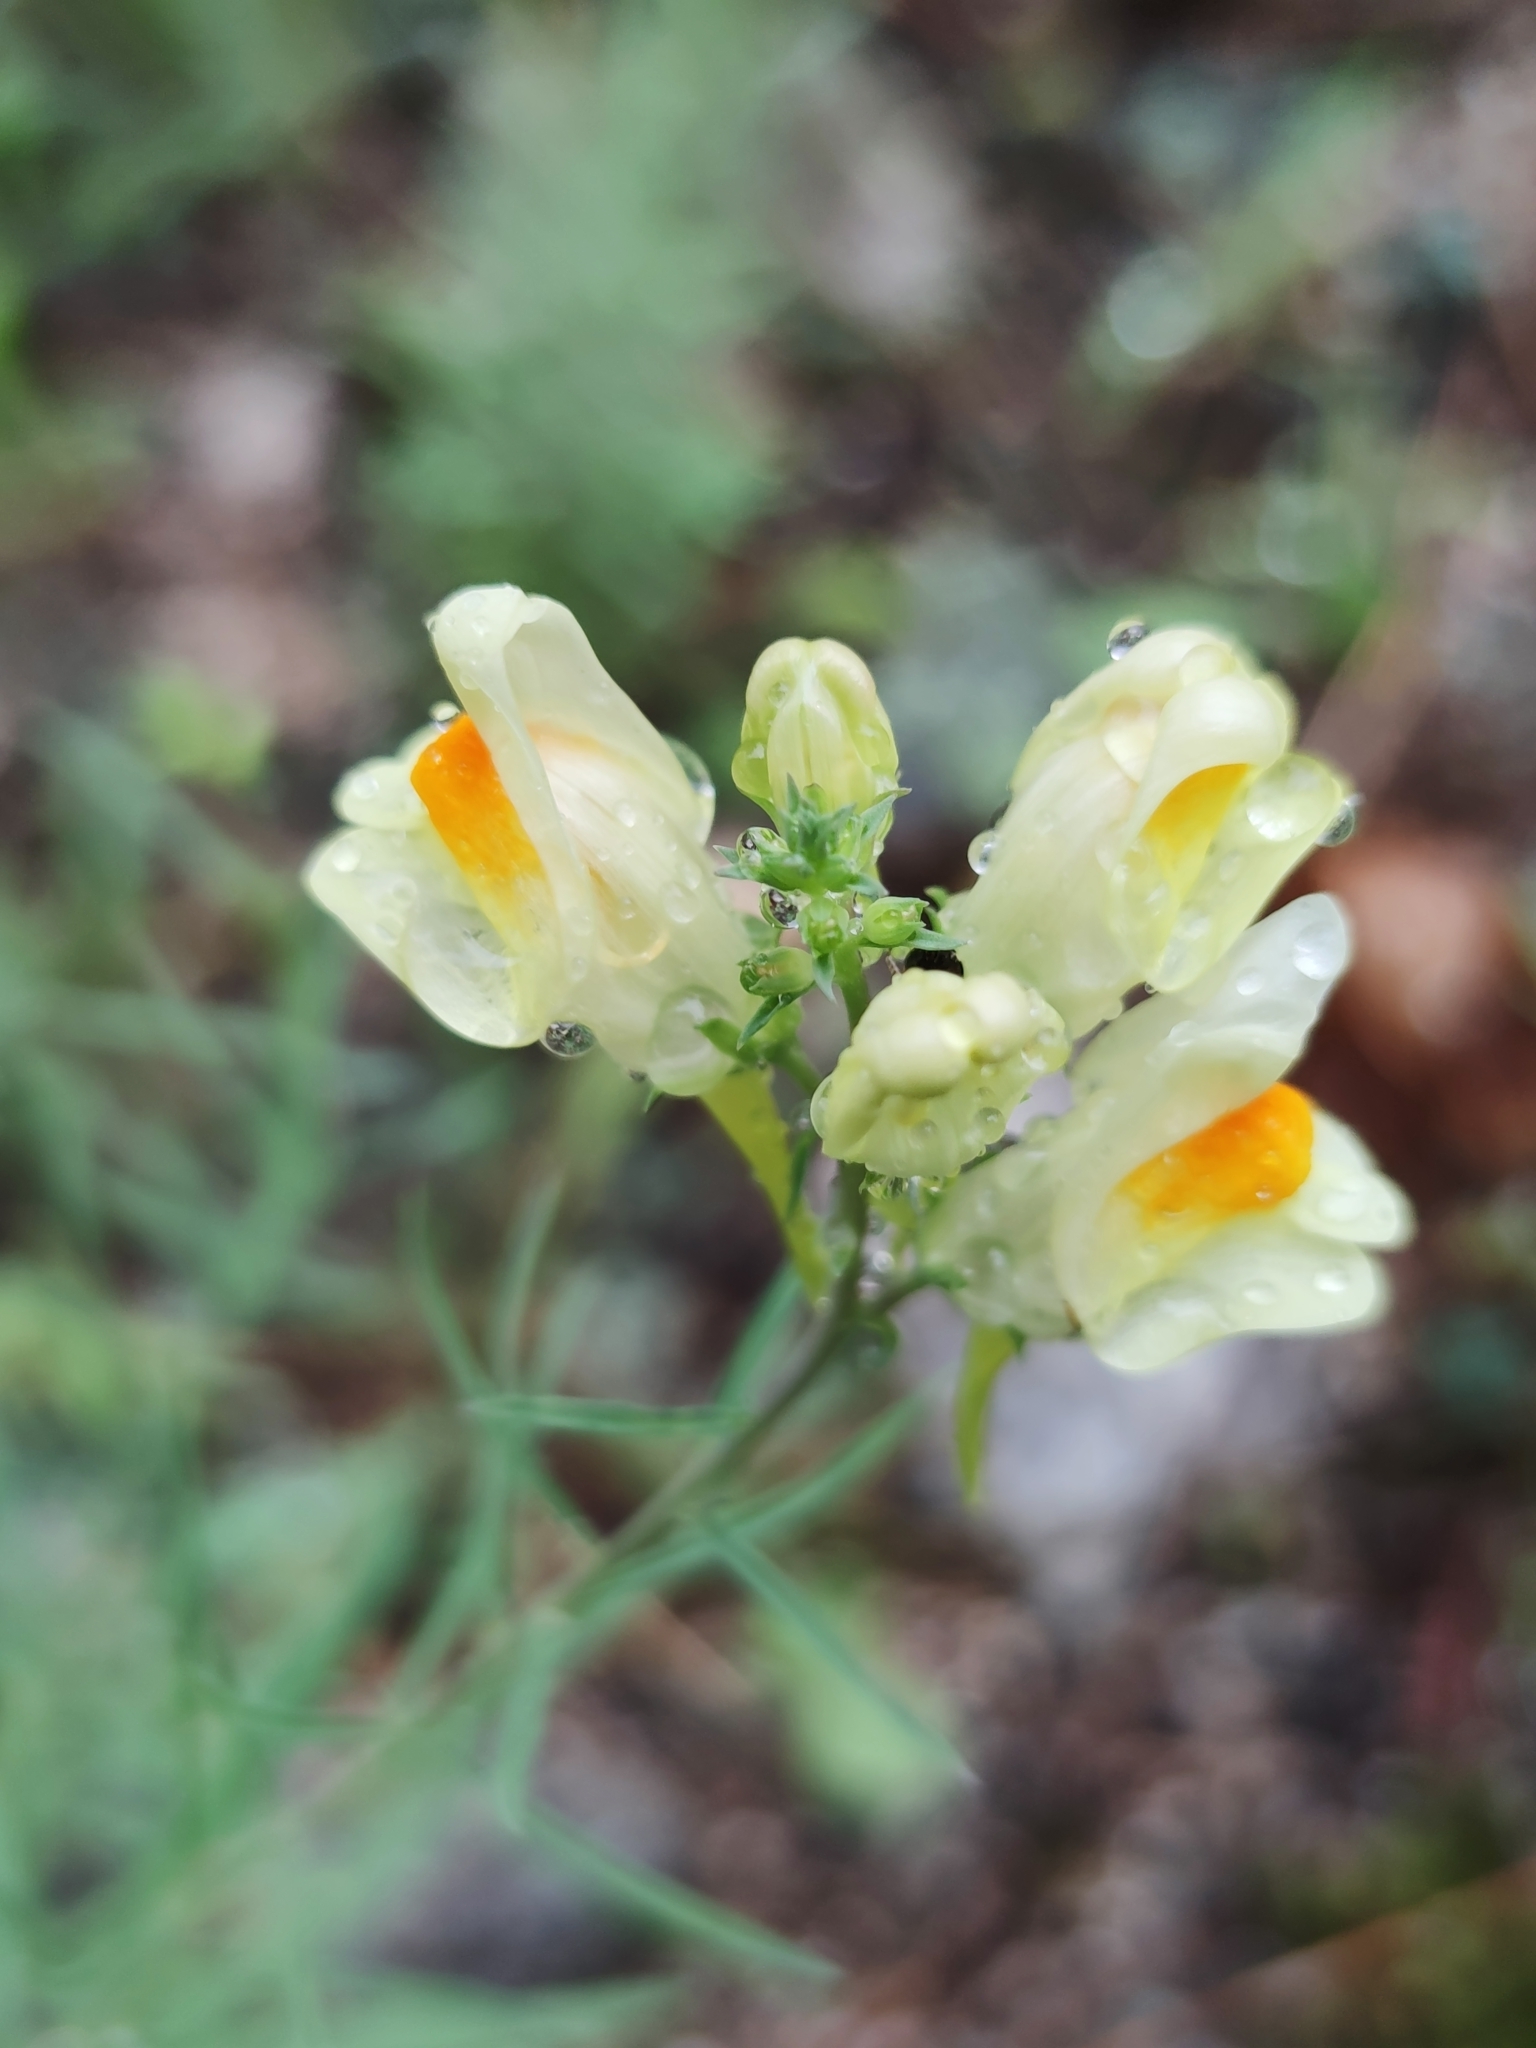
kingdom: Plantae
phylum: Tracheophyta
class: Magnoliopsida
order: Lamiales
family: Plantaginaceae
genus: Linaria
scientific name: Linaria vulgaris
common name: Butter and eggs
